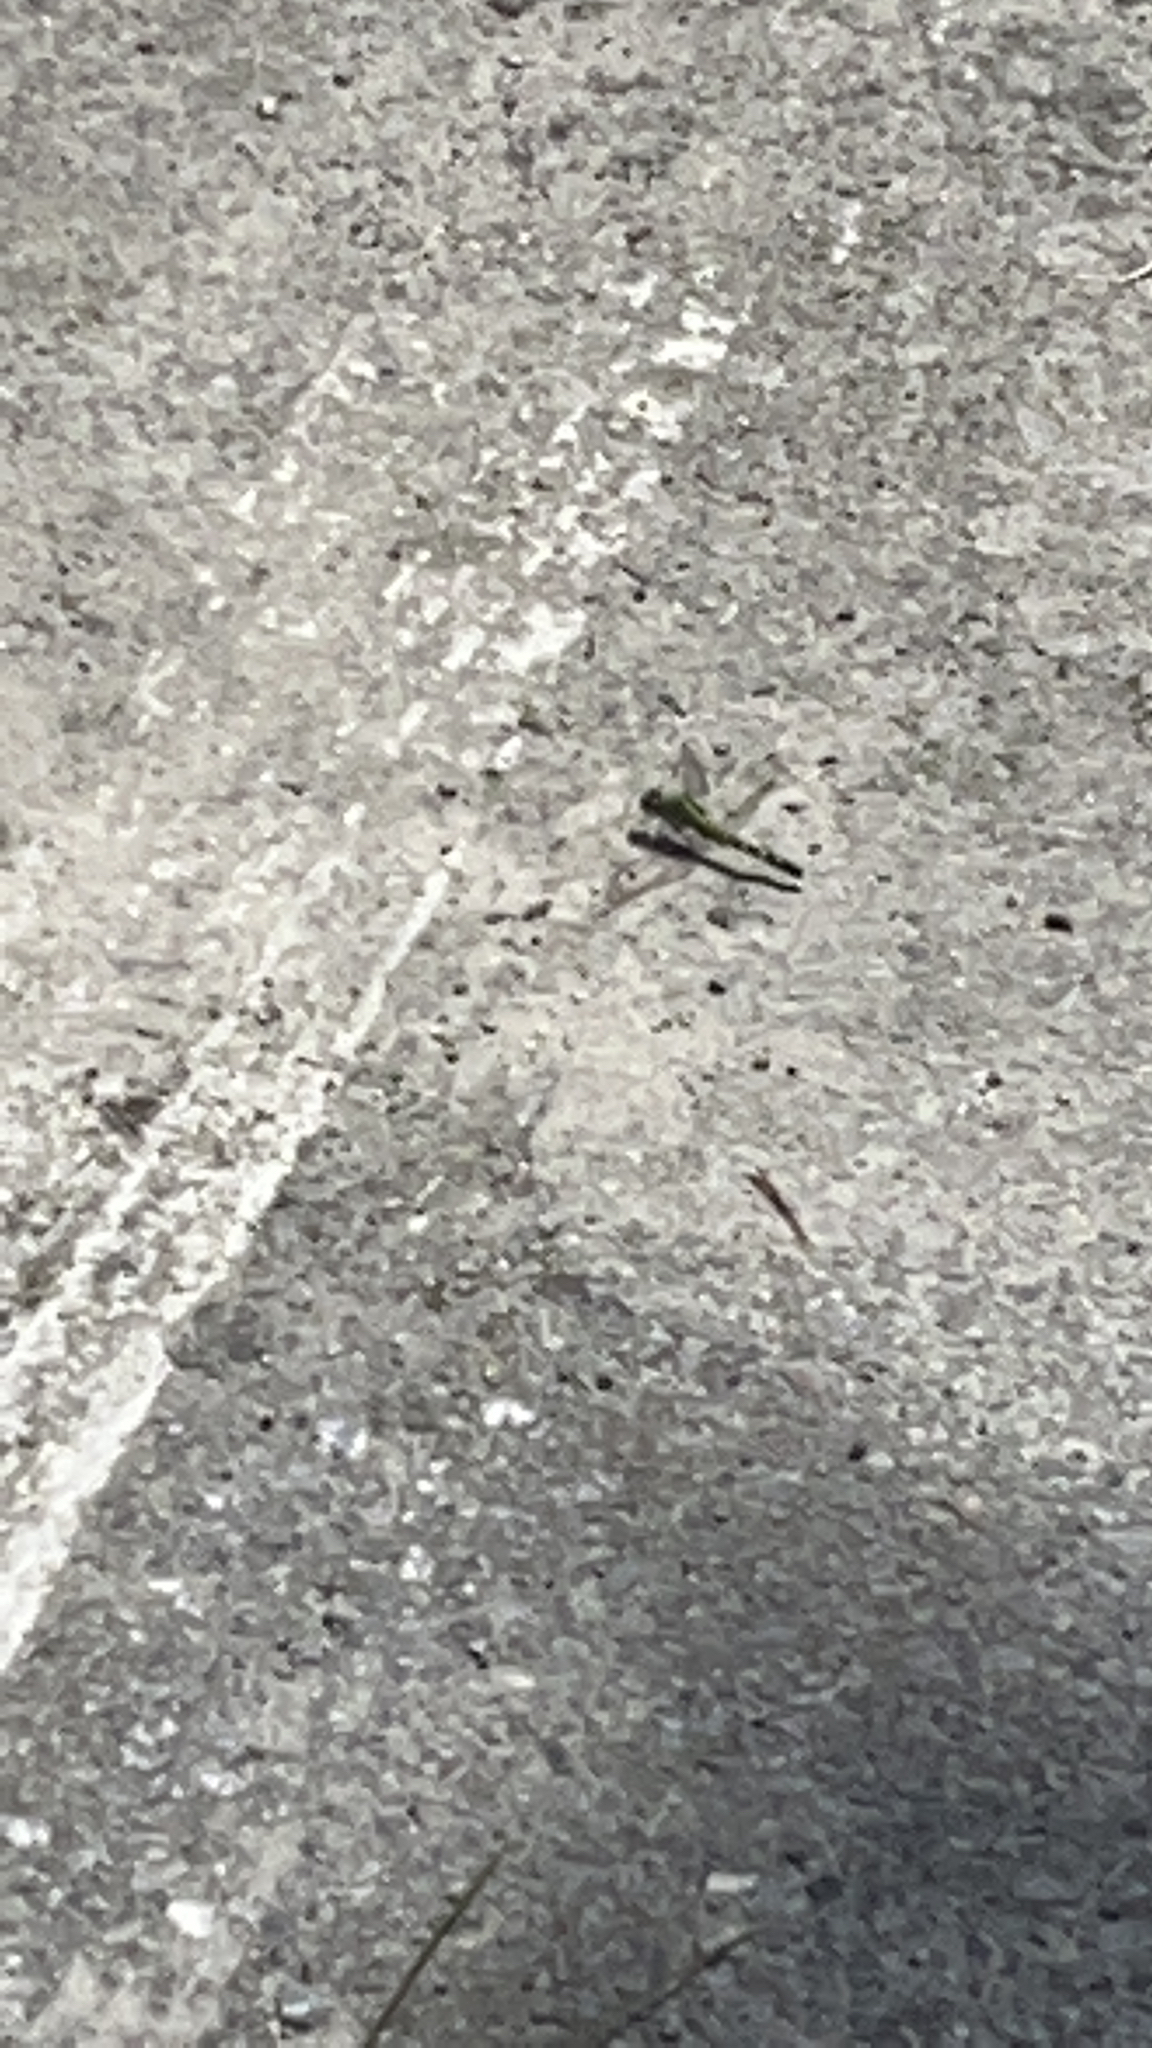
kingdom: Animalia
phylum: Arthropoda
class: Insecta
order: Odonata
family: Libellulidae
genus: Erythemis
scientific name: Erythemis simplicicollis
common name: Eastern pondhawk
